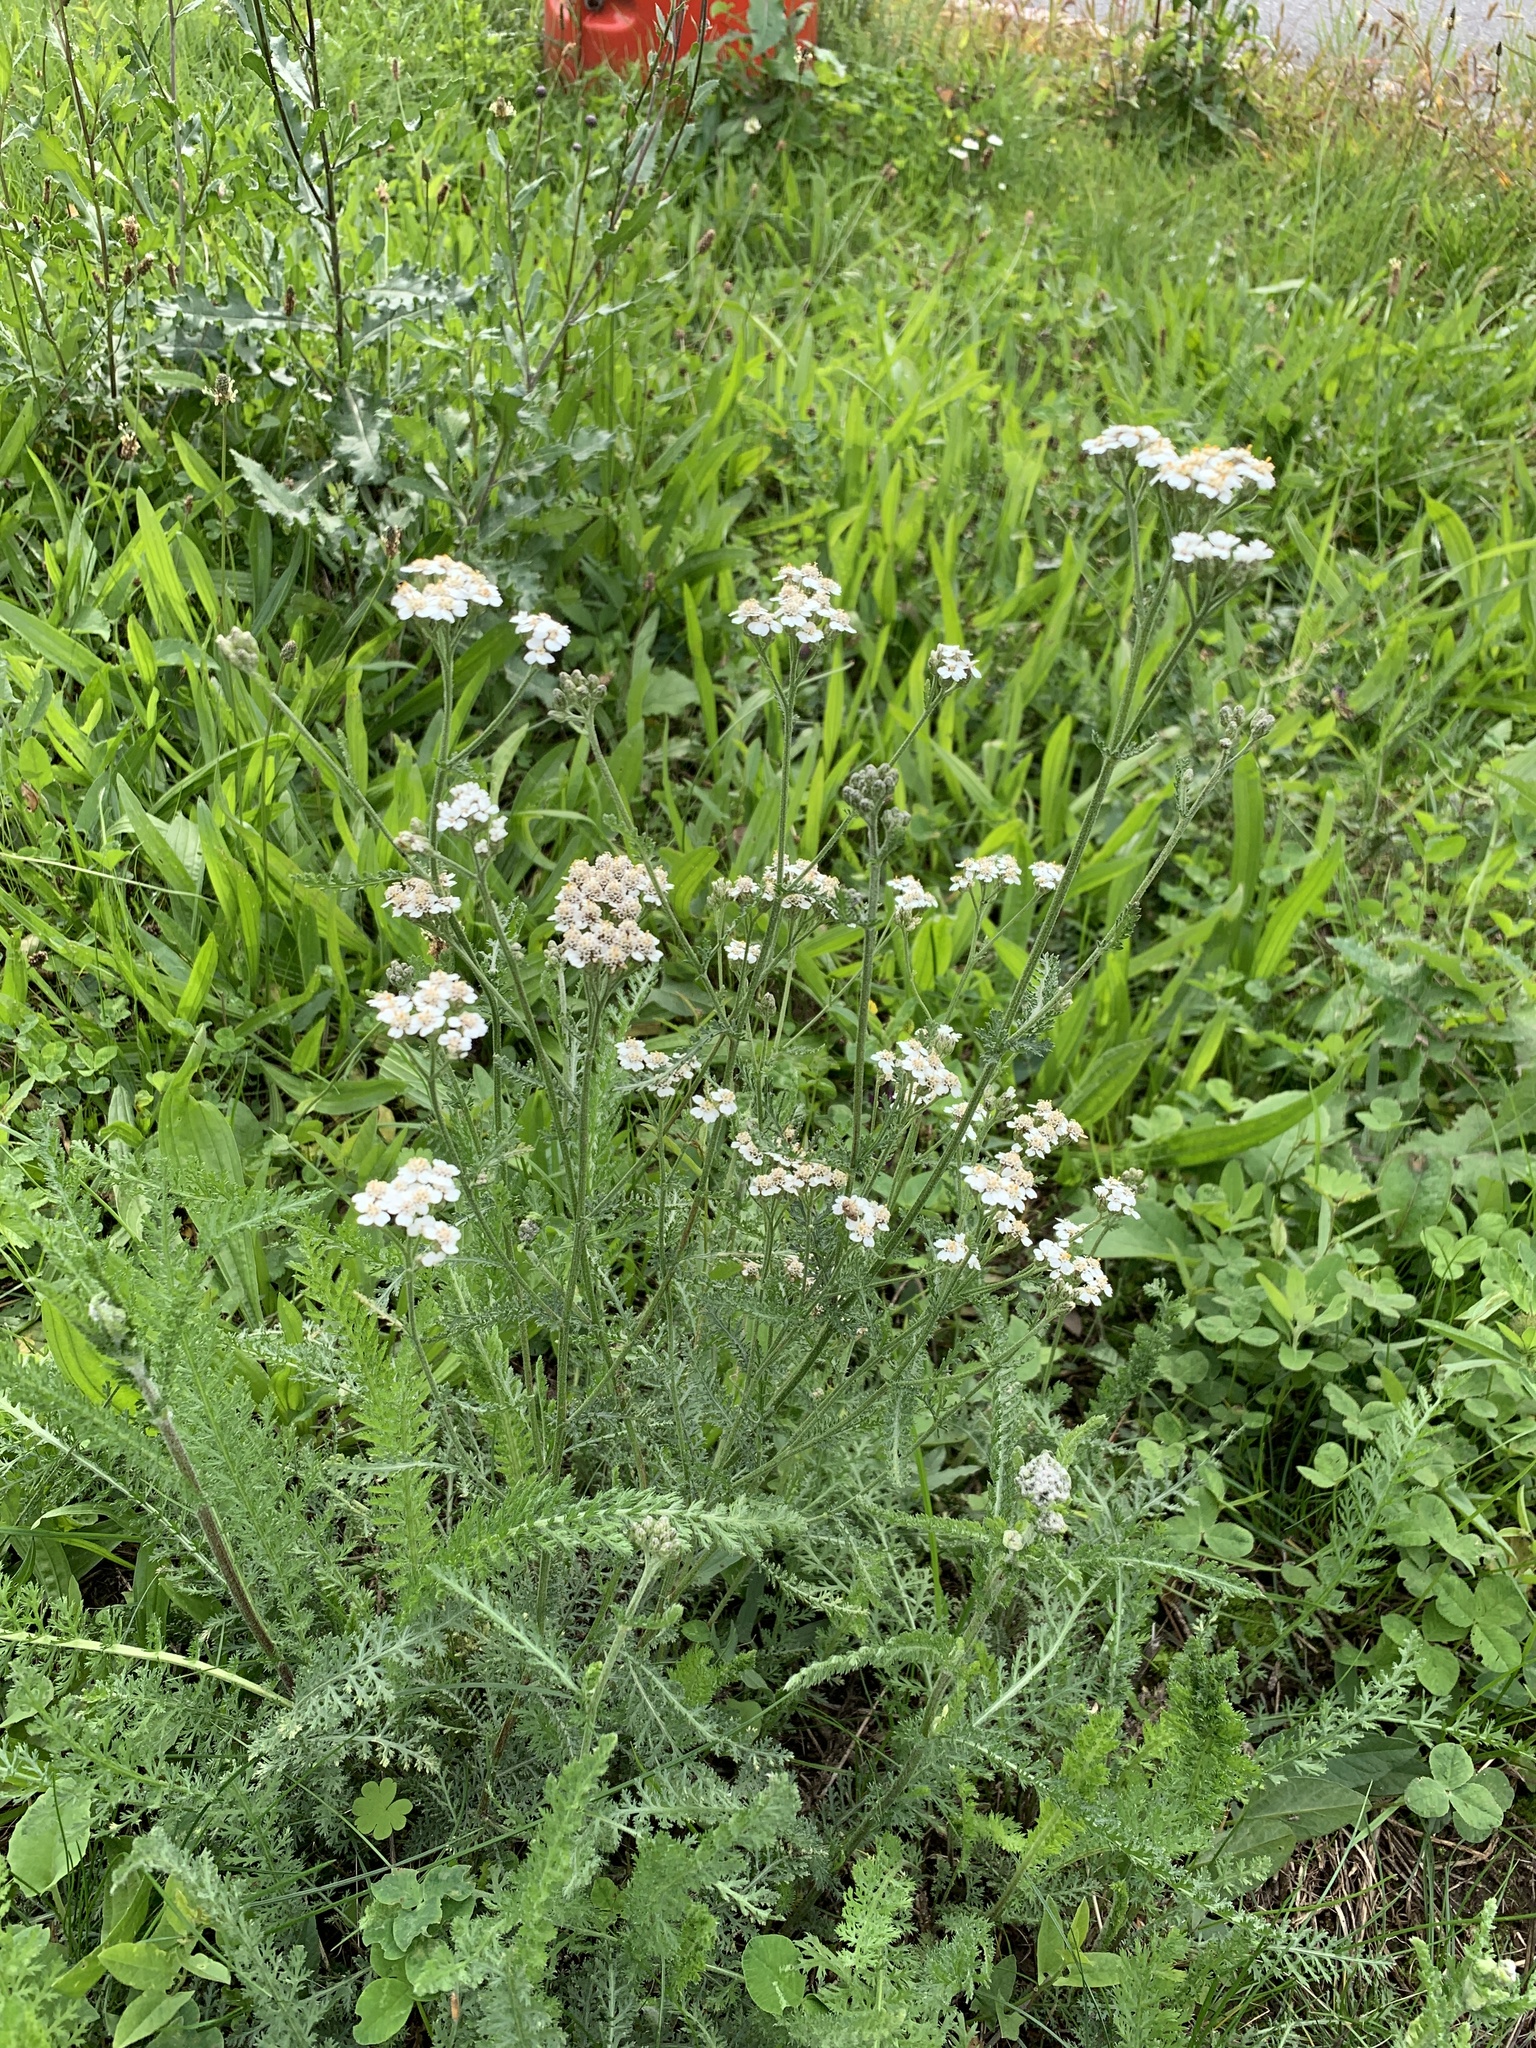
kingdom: Plantae
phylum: Tracheophyta
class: Magnoliopsida
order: Asterales
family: Asteraceae
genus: Achillea
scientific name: Achillea millefolium
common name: Yarrow
